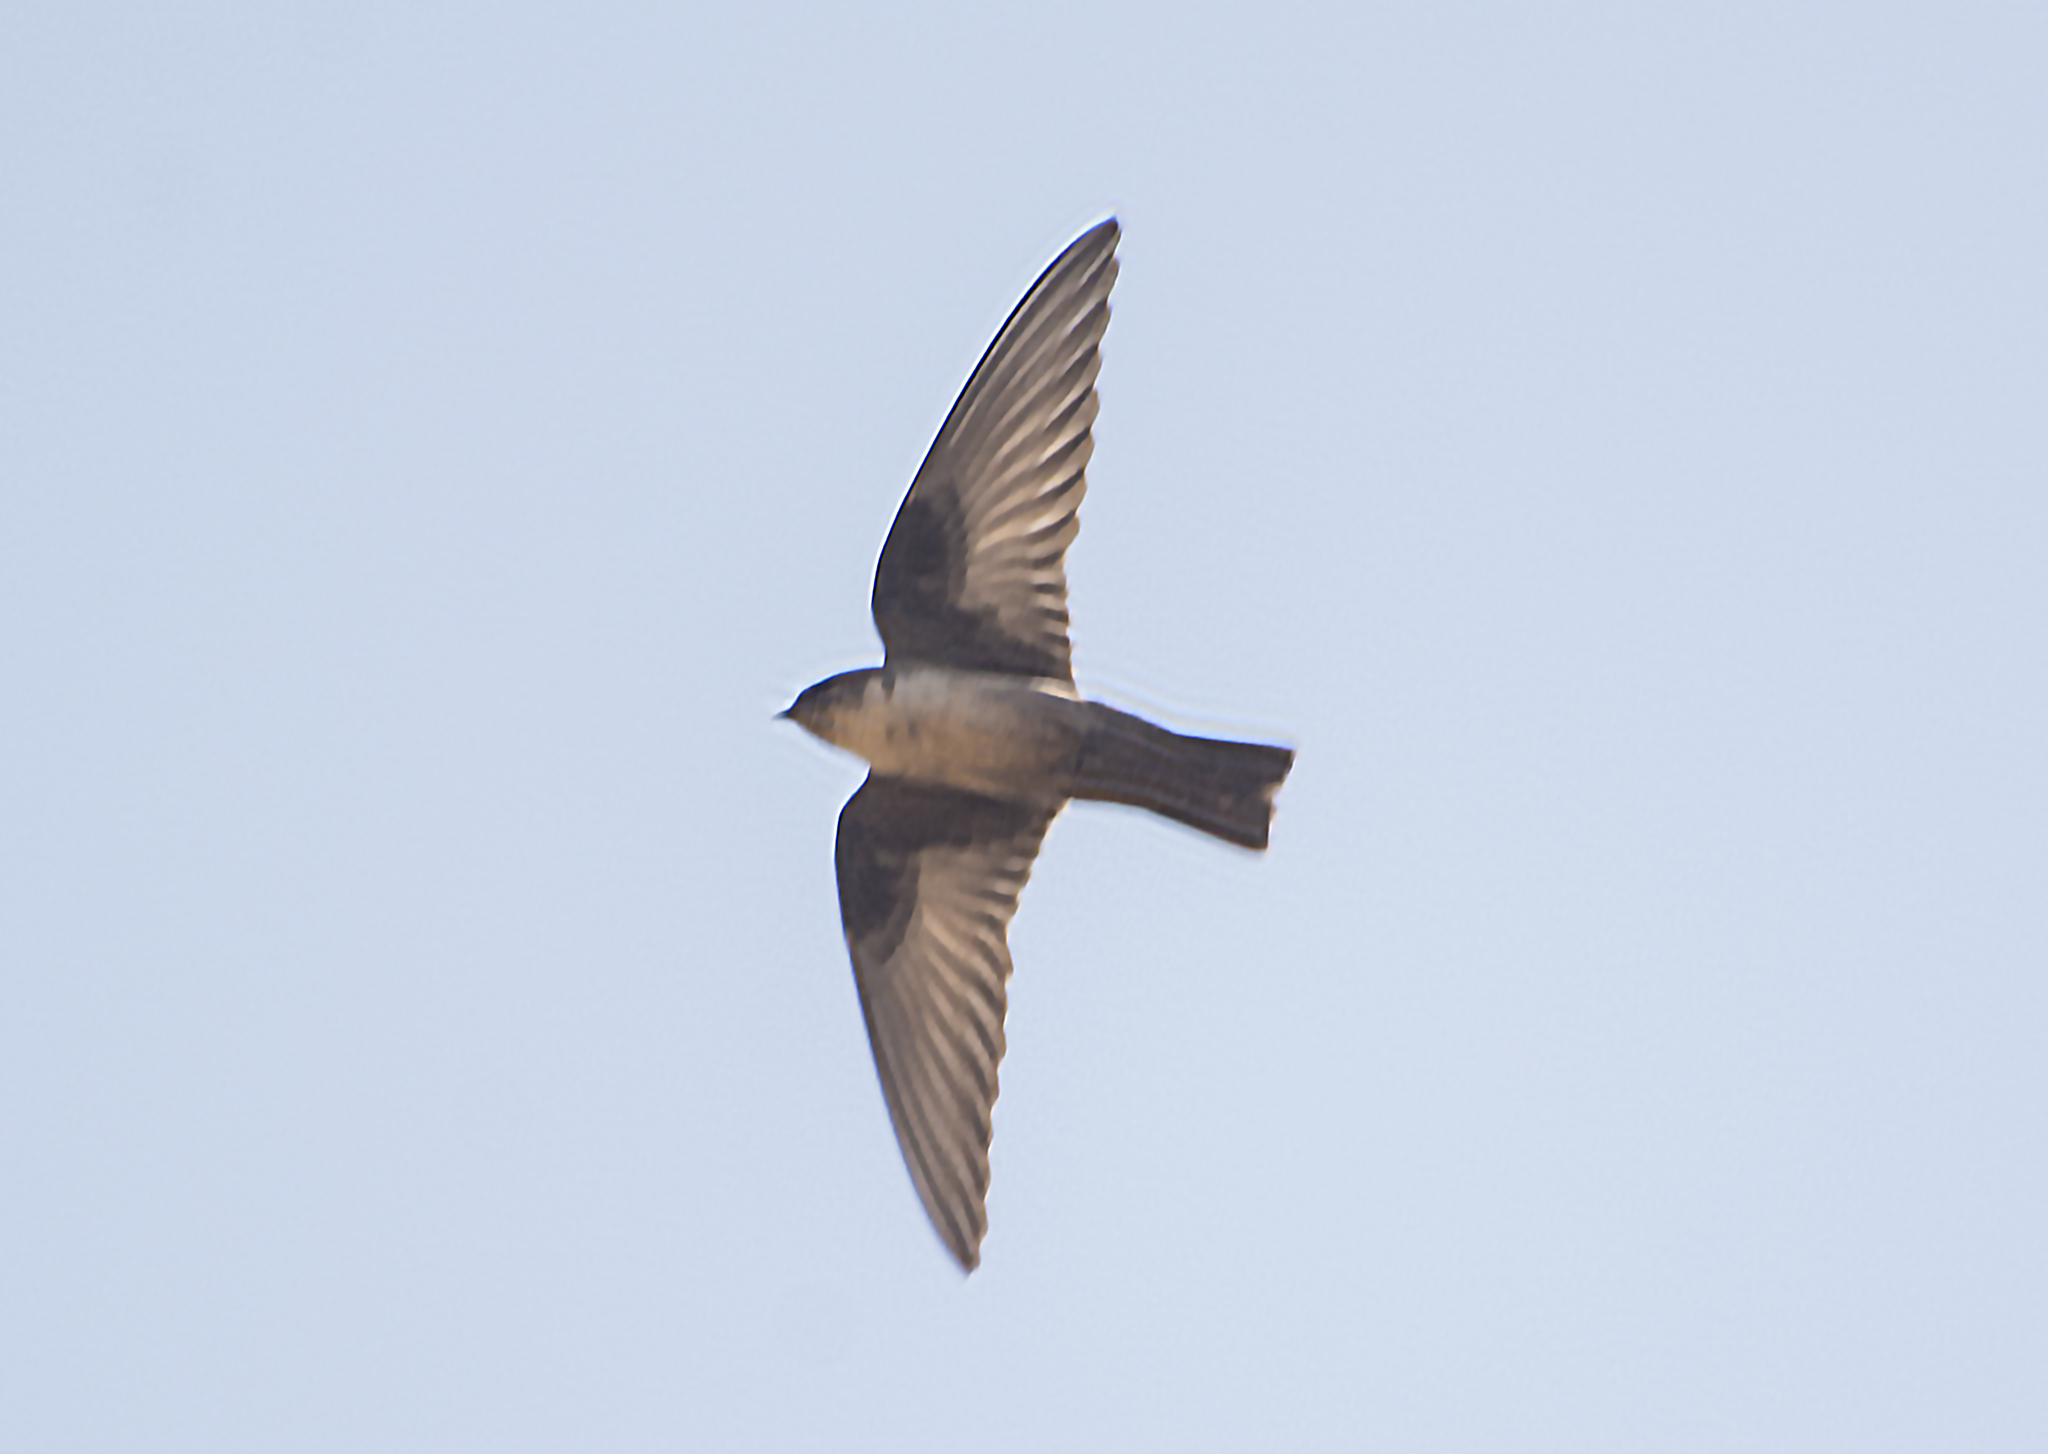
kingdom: Animalia
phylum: Chordata
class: Aves
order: Passeriformes
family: Hirundinidae
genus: Ptyonoprogne
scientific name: Ptyonoprogne rupestris
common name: Eurasian crag martin
